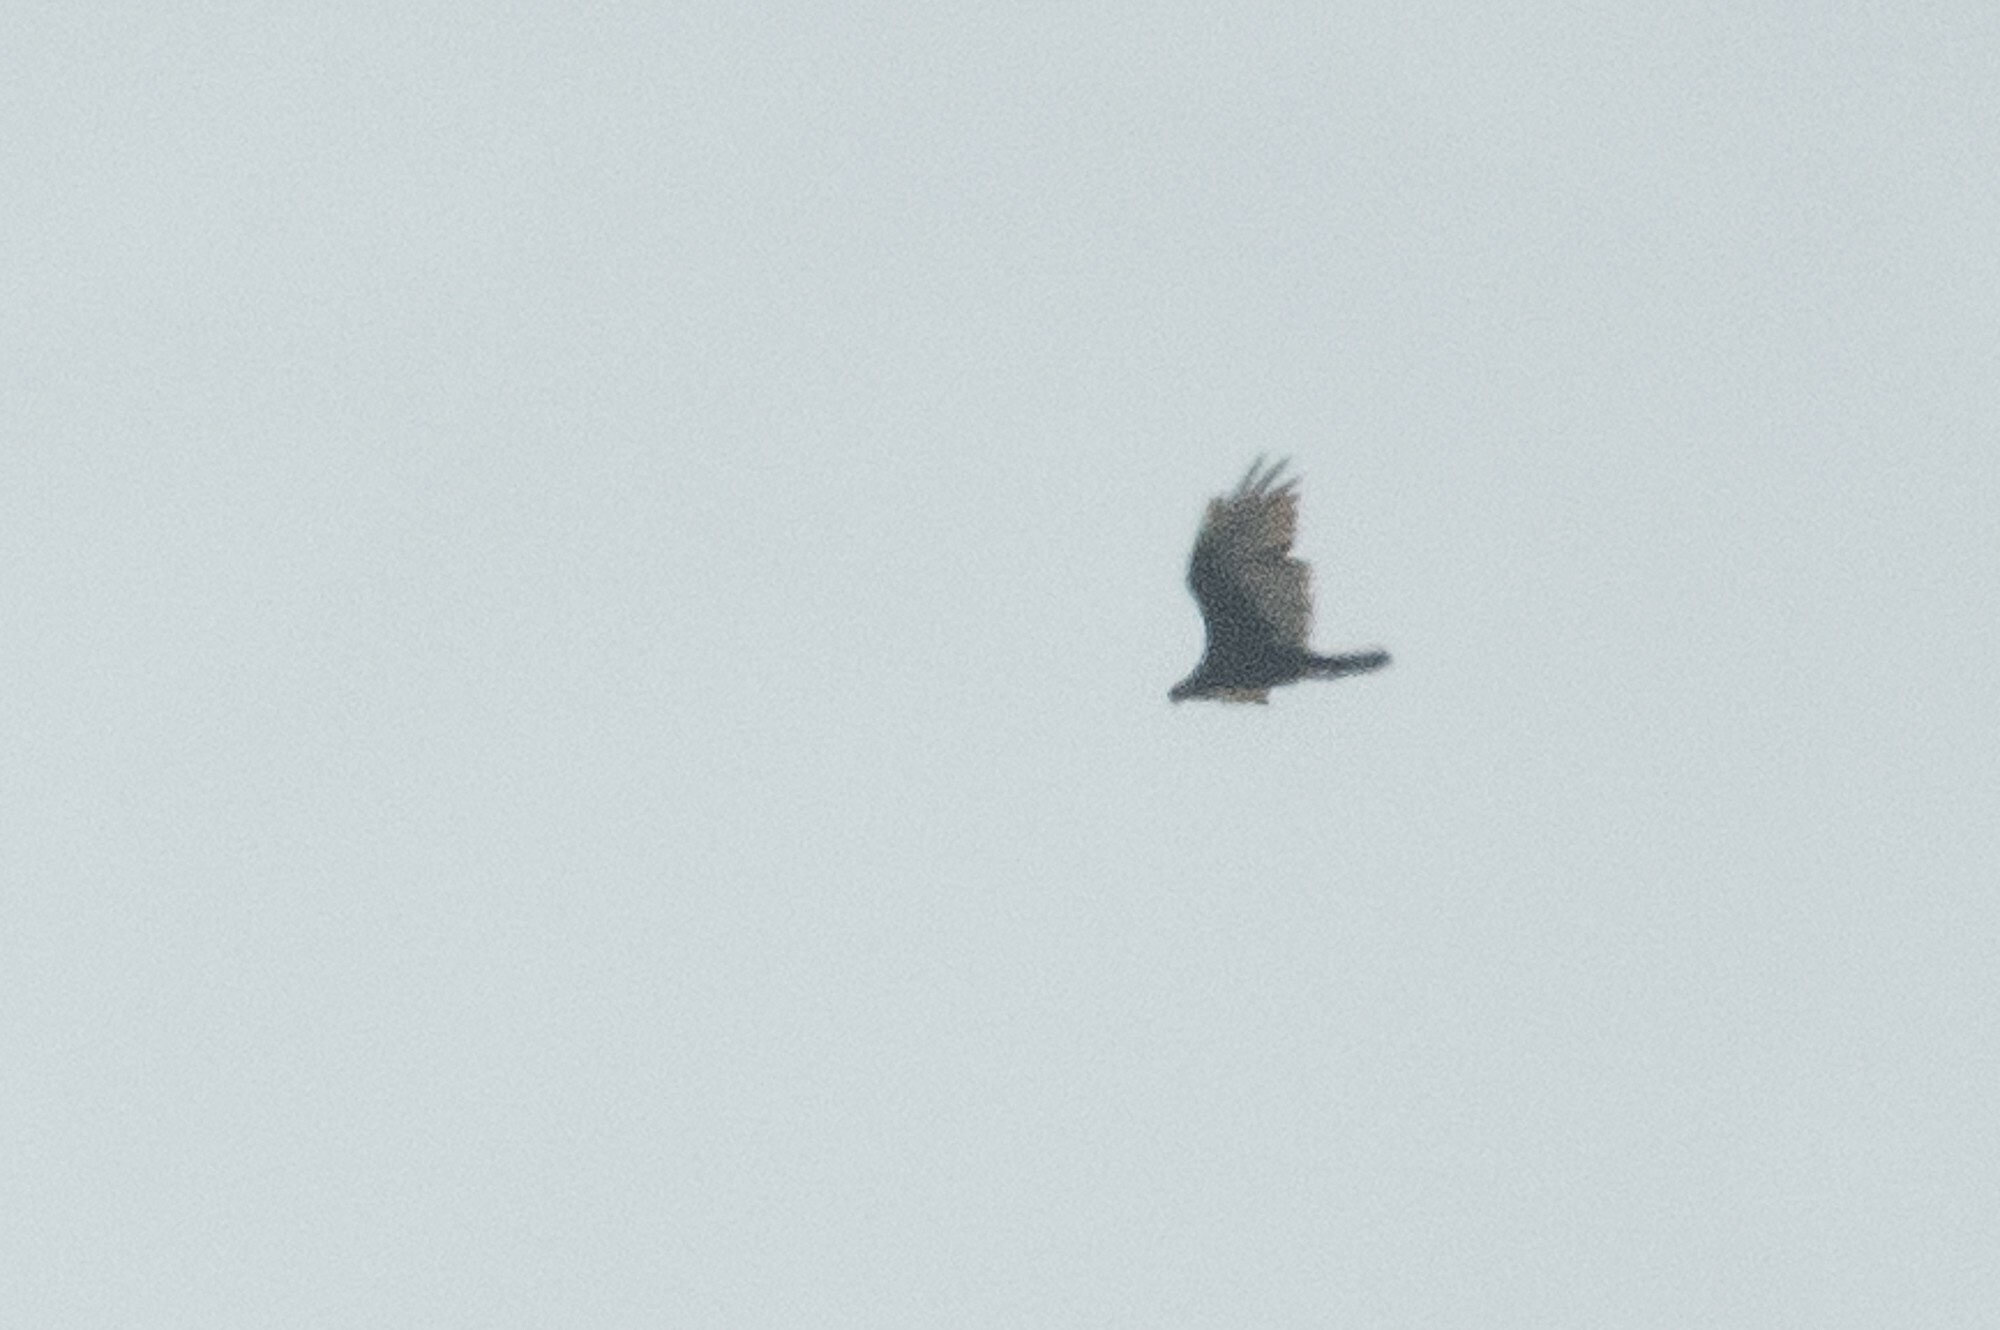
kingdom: Animalia
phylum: Chordata
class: Aves
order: Accipitriformes
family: Cathartidae
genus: Cathartes
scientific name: Cathartes aura
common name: Turkey vulture
